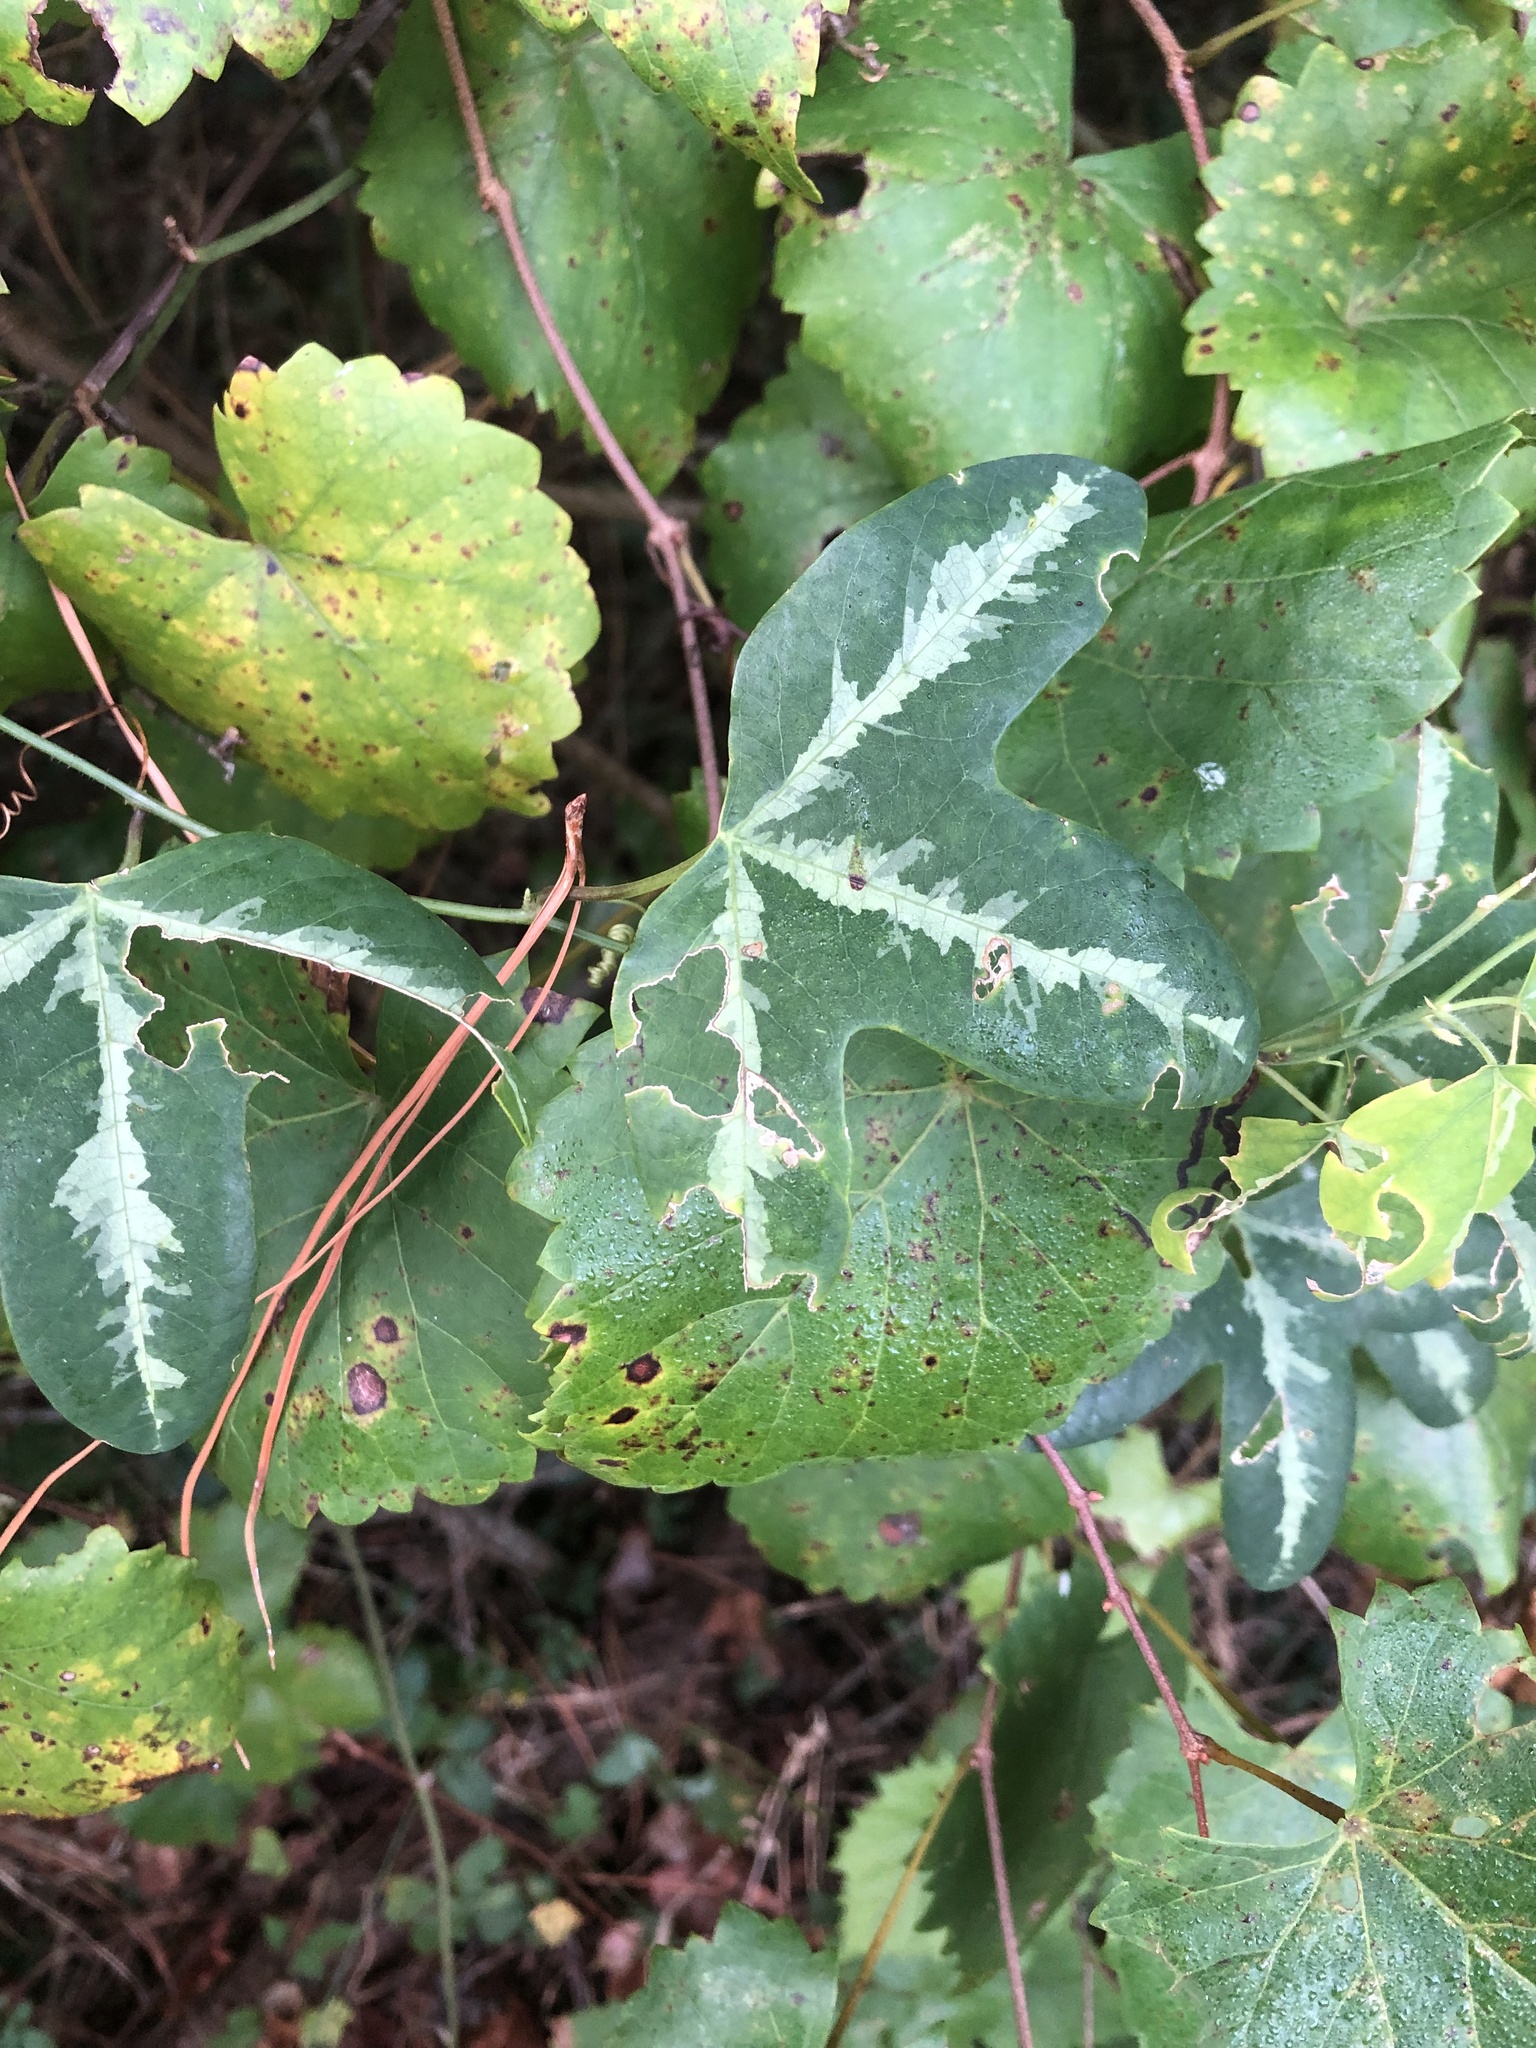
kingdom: Plantae
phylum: Tracheophyta
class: Magnoliopsida
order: Malpighiales
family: Passifloraceae
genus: Passiflora
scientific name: Passiflora lutea
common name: Yellow passionflower
